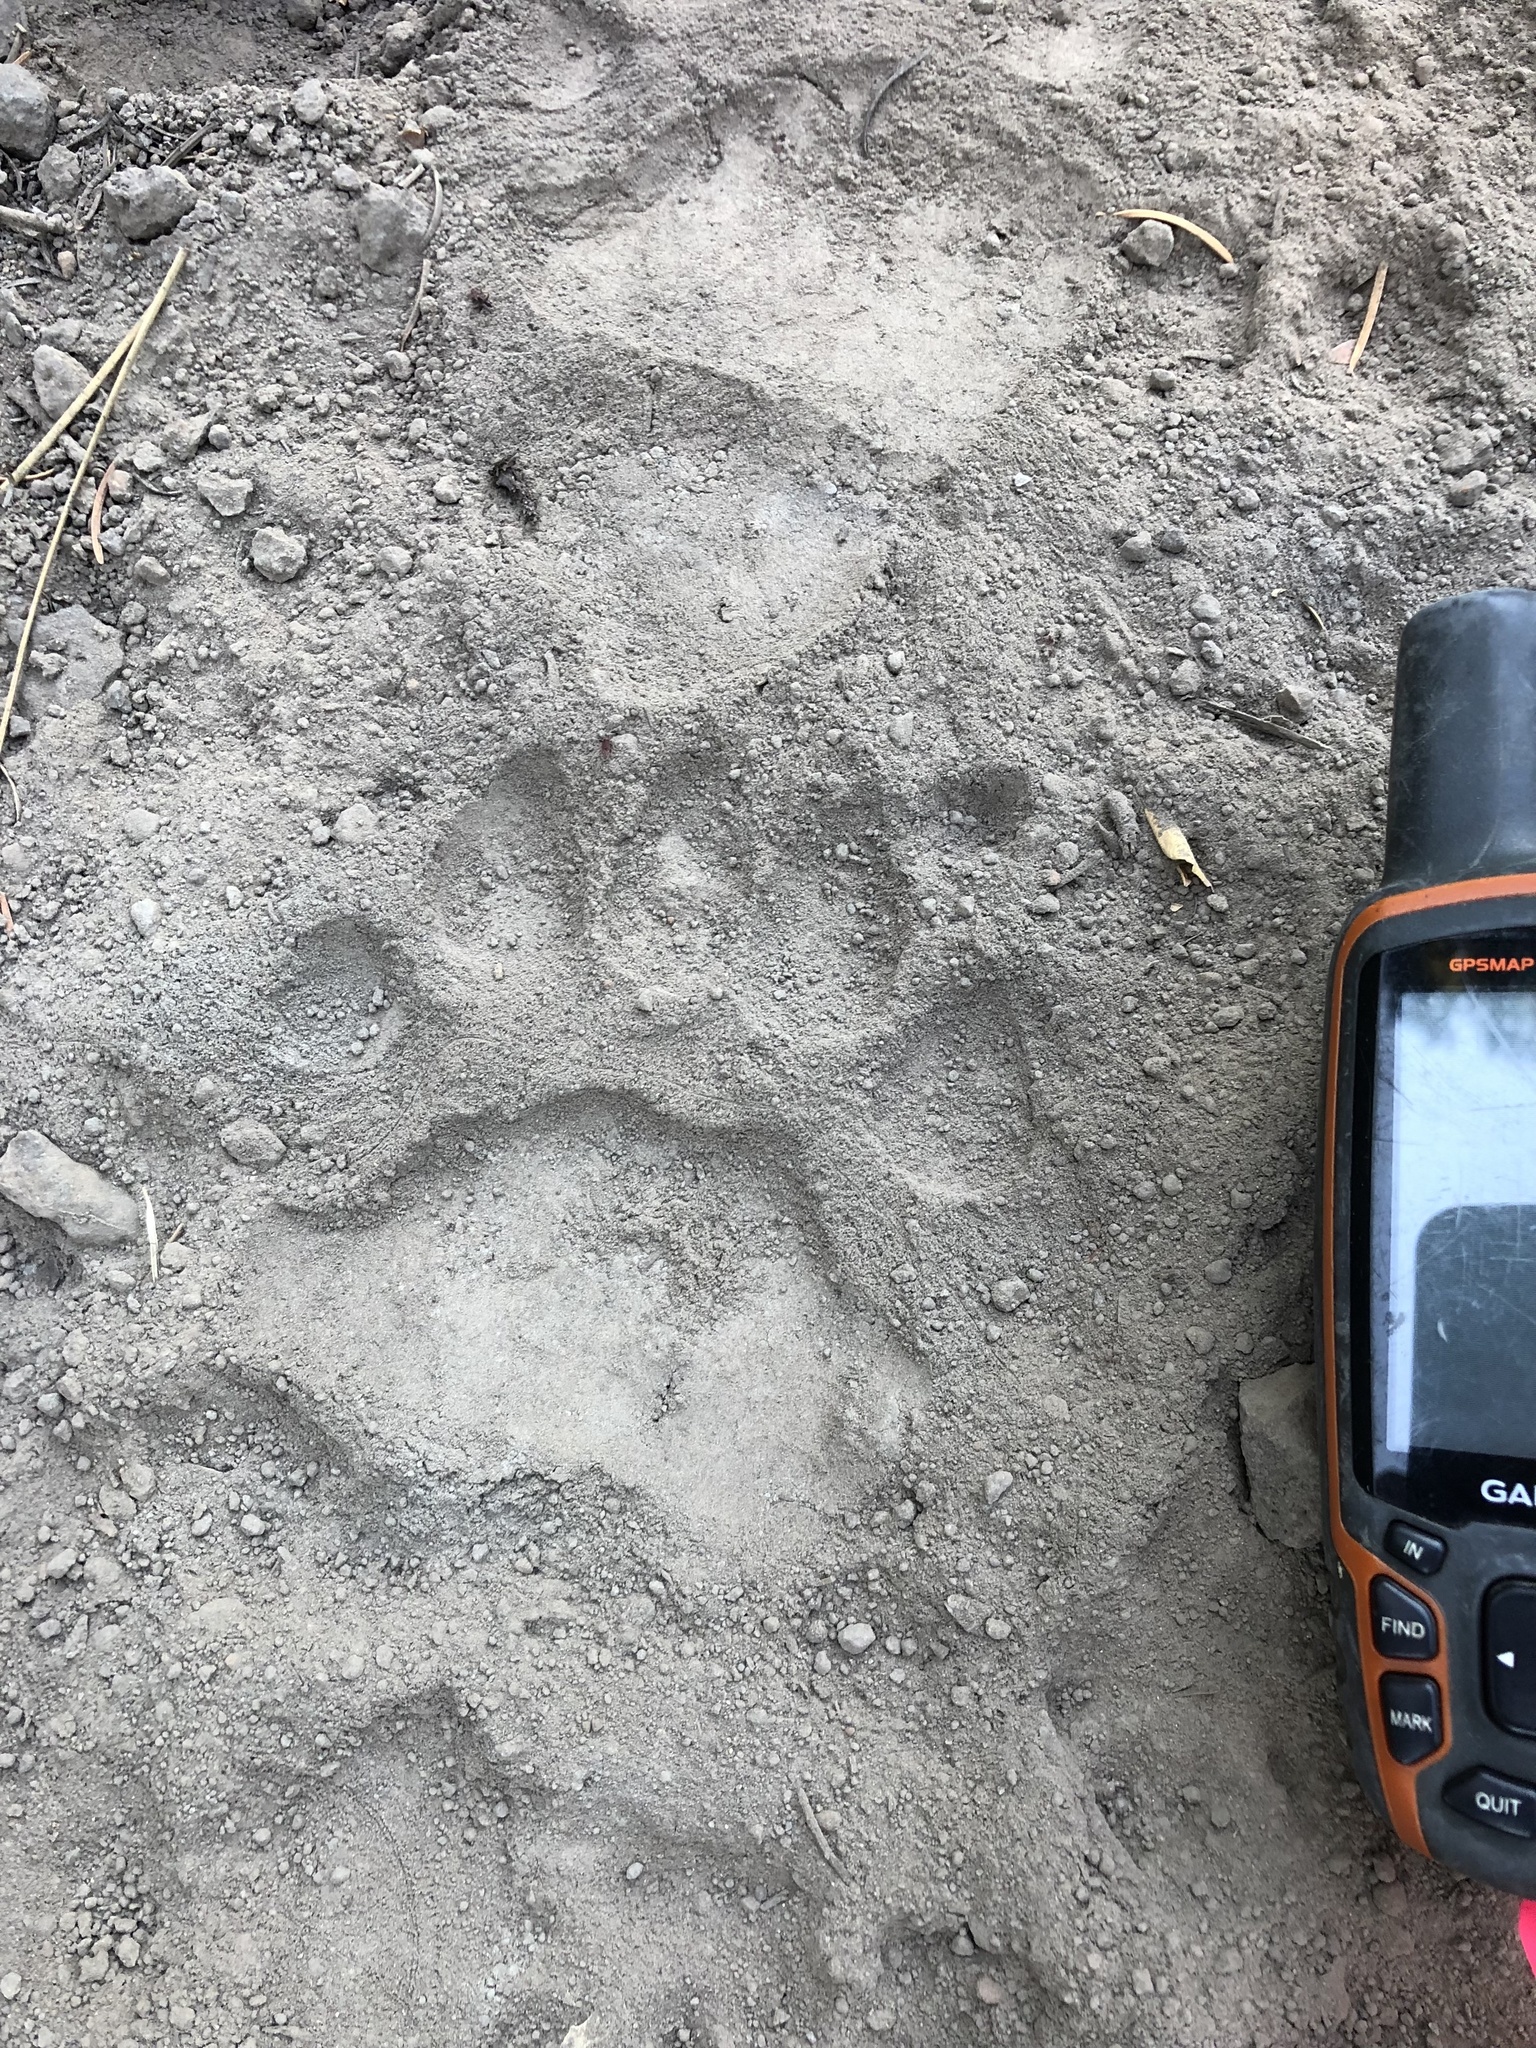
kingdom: Animalia
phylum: Chordata
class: Mammalia
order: Carnivora
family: Ursidae
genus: Ursus
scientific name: Ursus americanus
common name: American black bear
